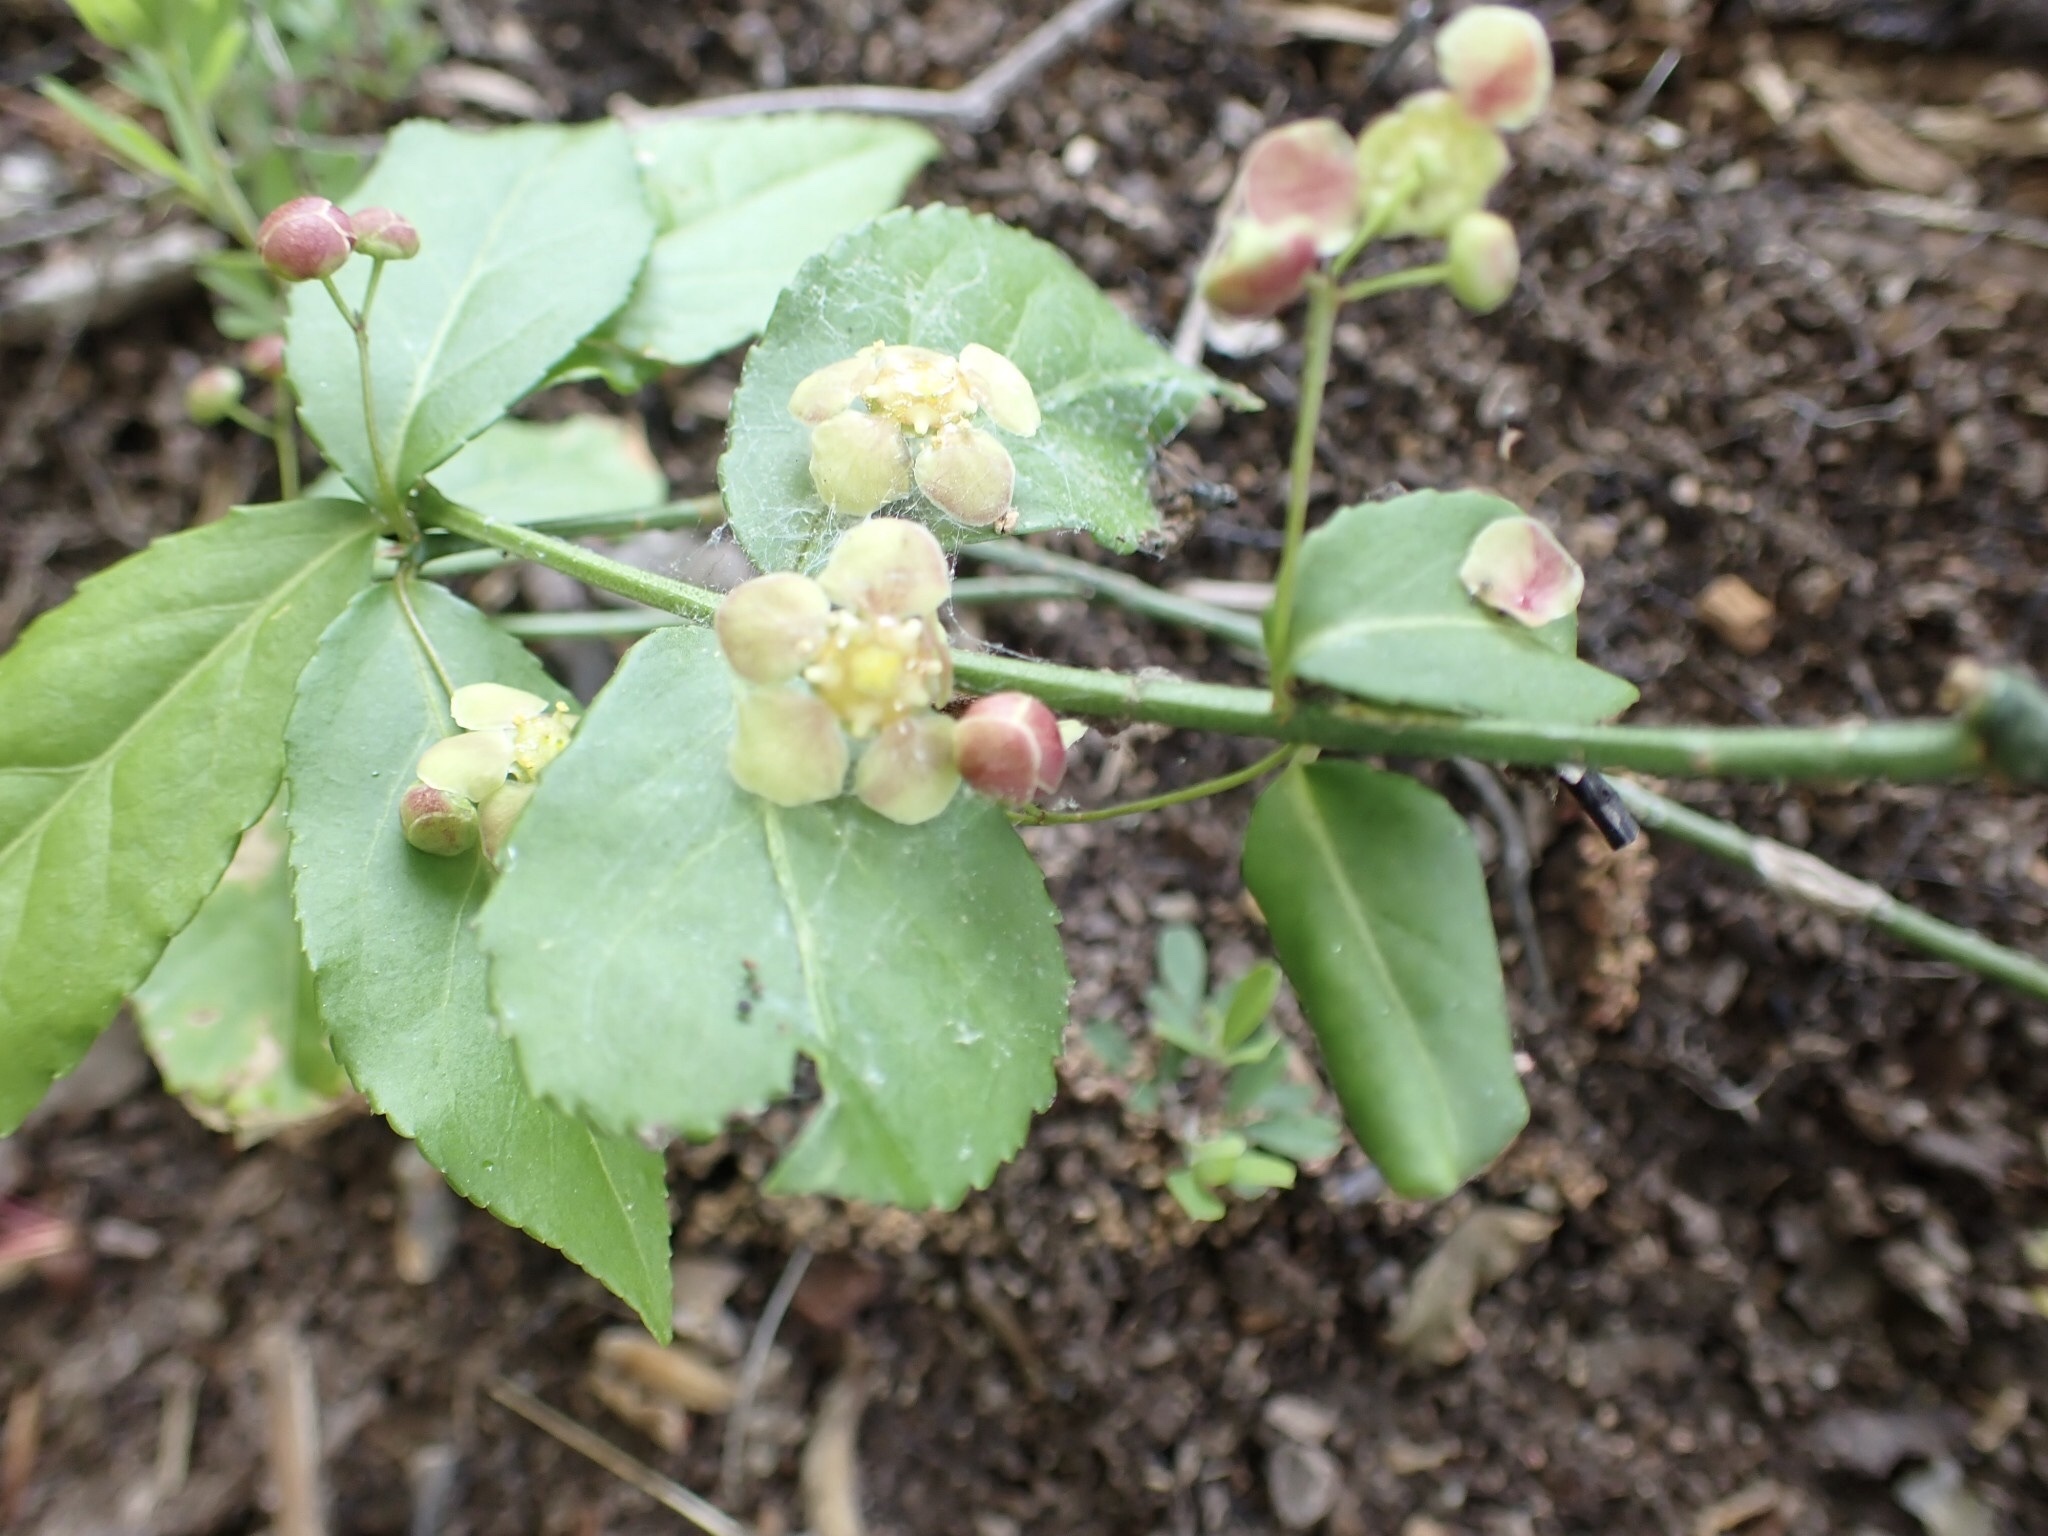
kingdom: Plantae
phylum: Tracheophyta
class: Magnoliopsida
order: Celastrales
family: Celastraceae
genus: Euonymus
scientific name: Euonymus americanus
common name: Bursting-heart
